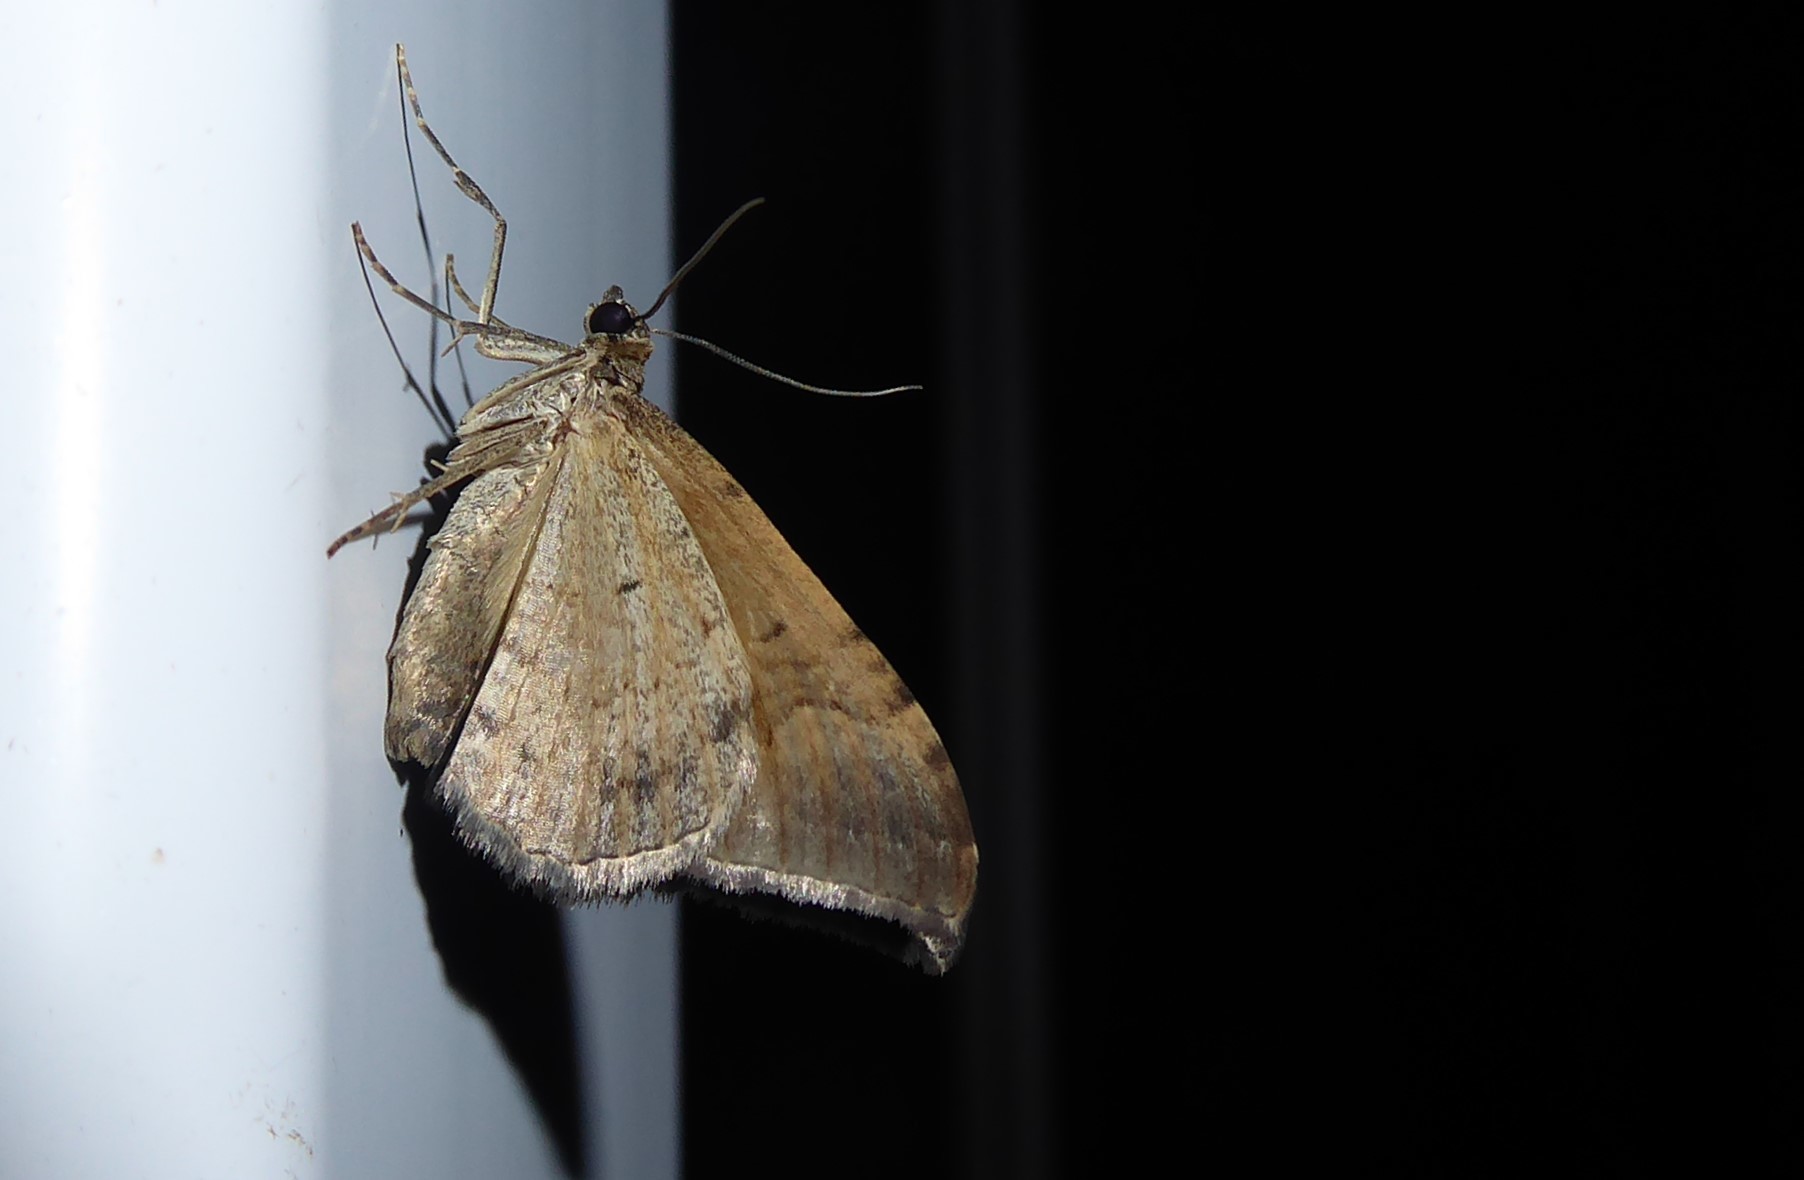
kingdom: Animalia
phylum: Arthropoda
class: Insecta
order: Lepidoptera
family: Geometridae
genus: Hydriomena
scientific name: Hydriomena deltoidata
